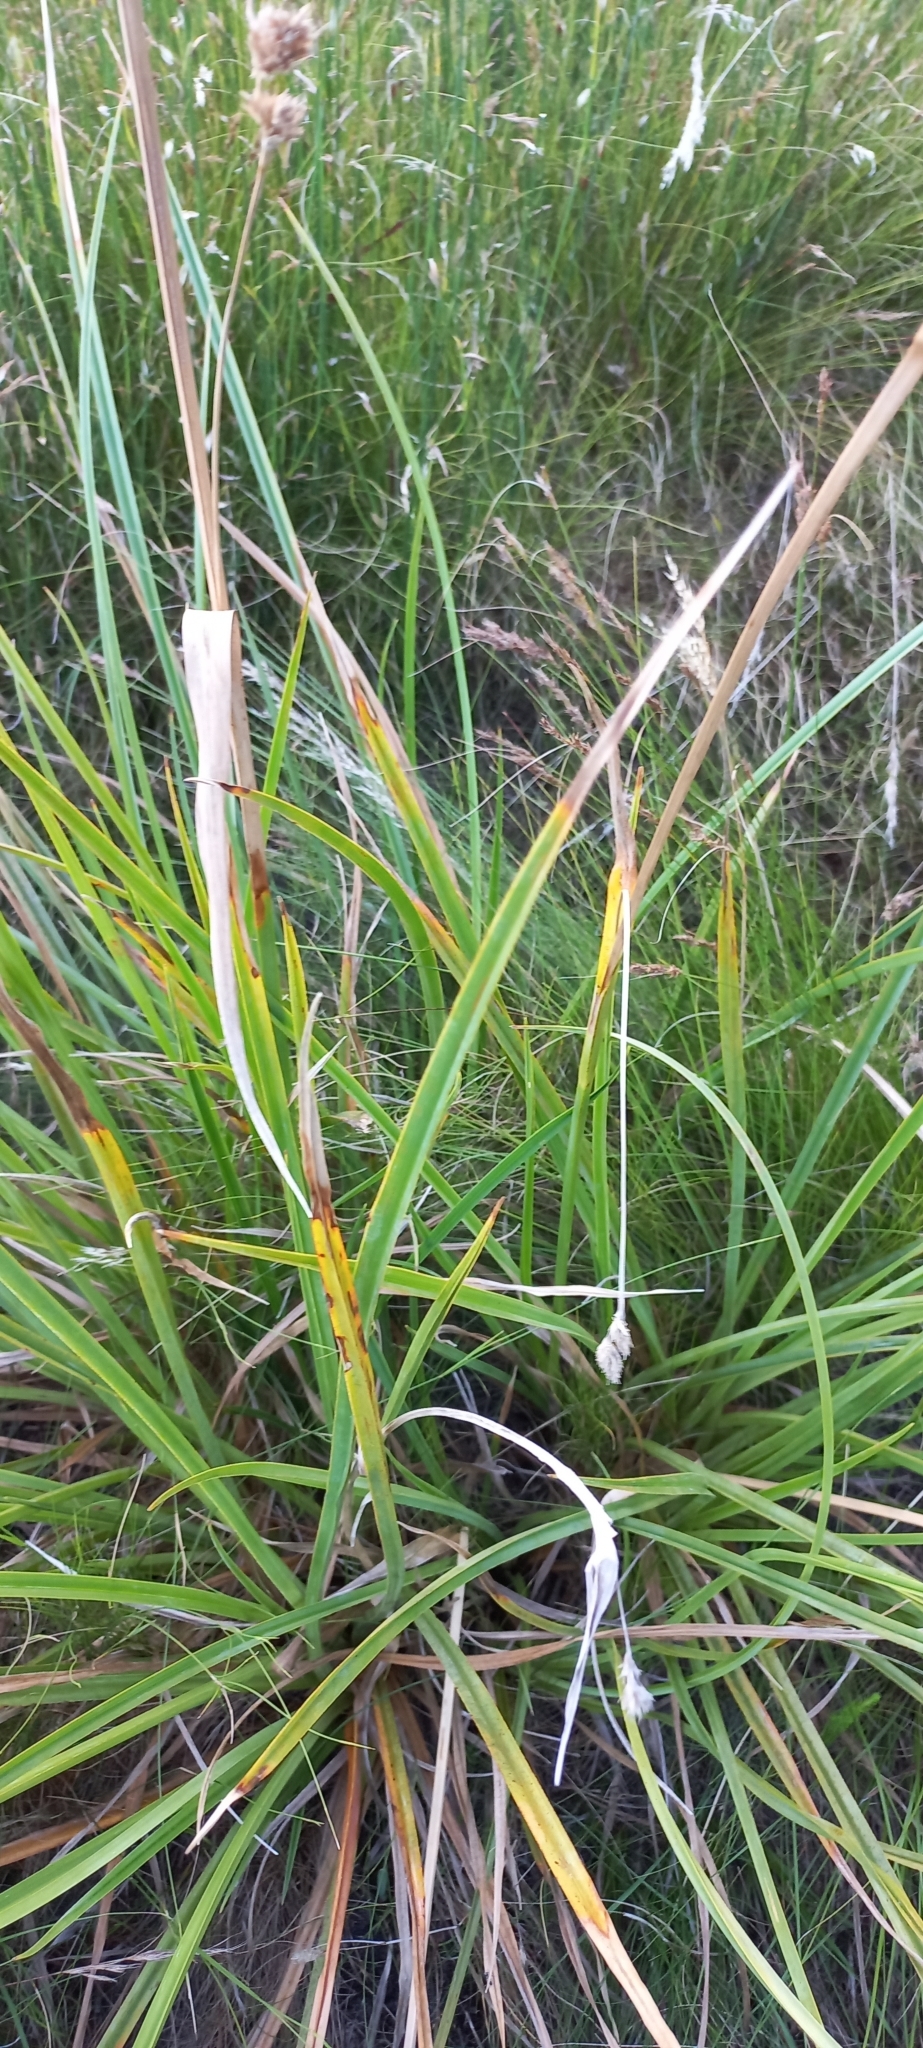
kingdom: Plantae
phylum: Tracheophyta
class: Liliopsida
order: Poales
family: Cyperaceae
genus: Carpha
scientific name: Carpha glomerata
